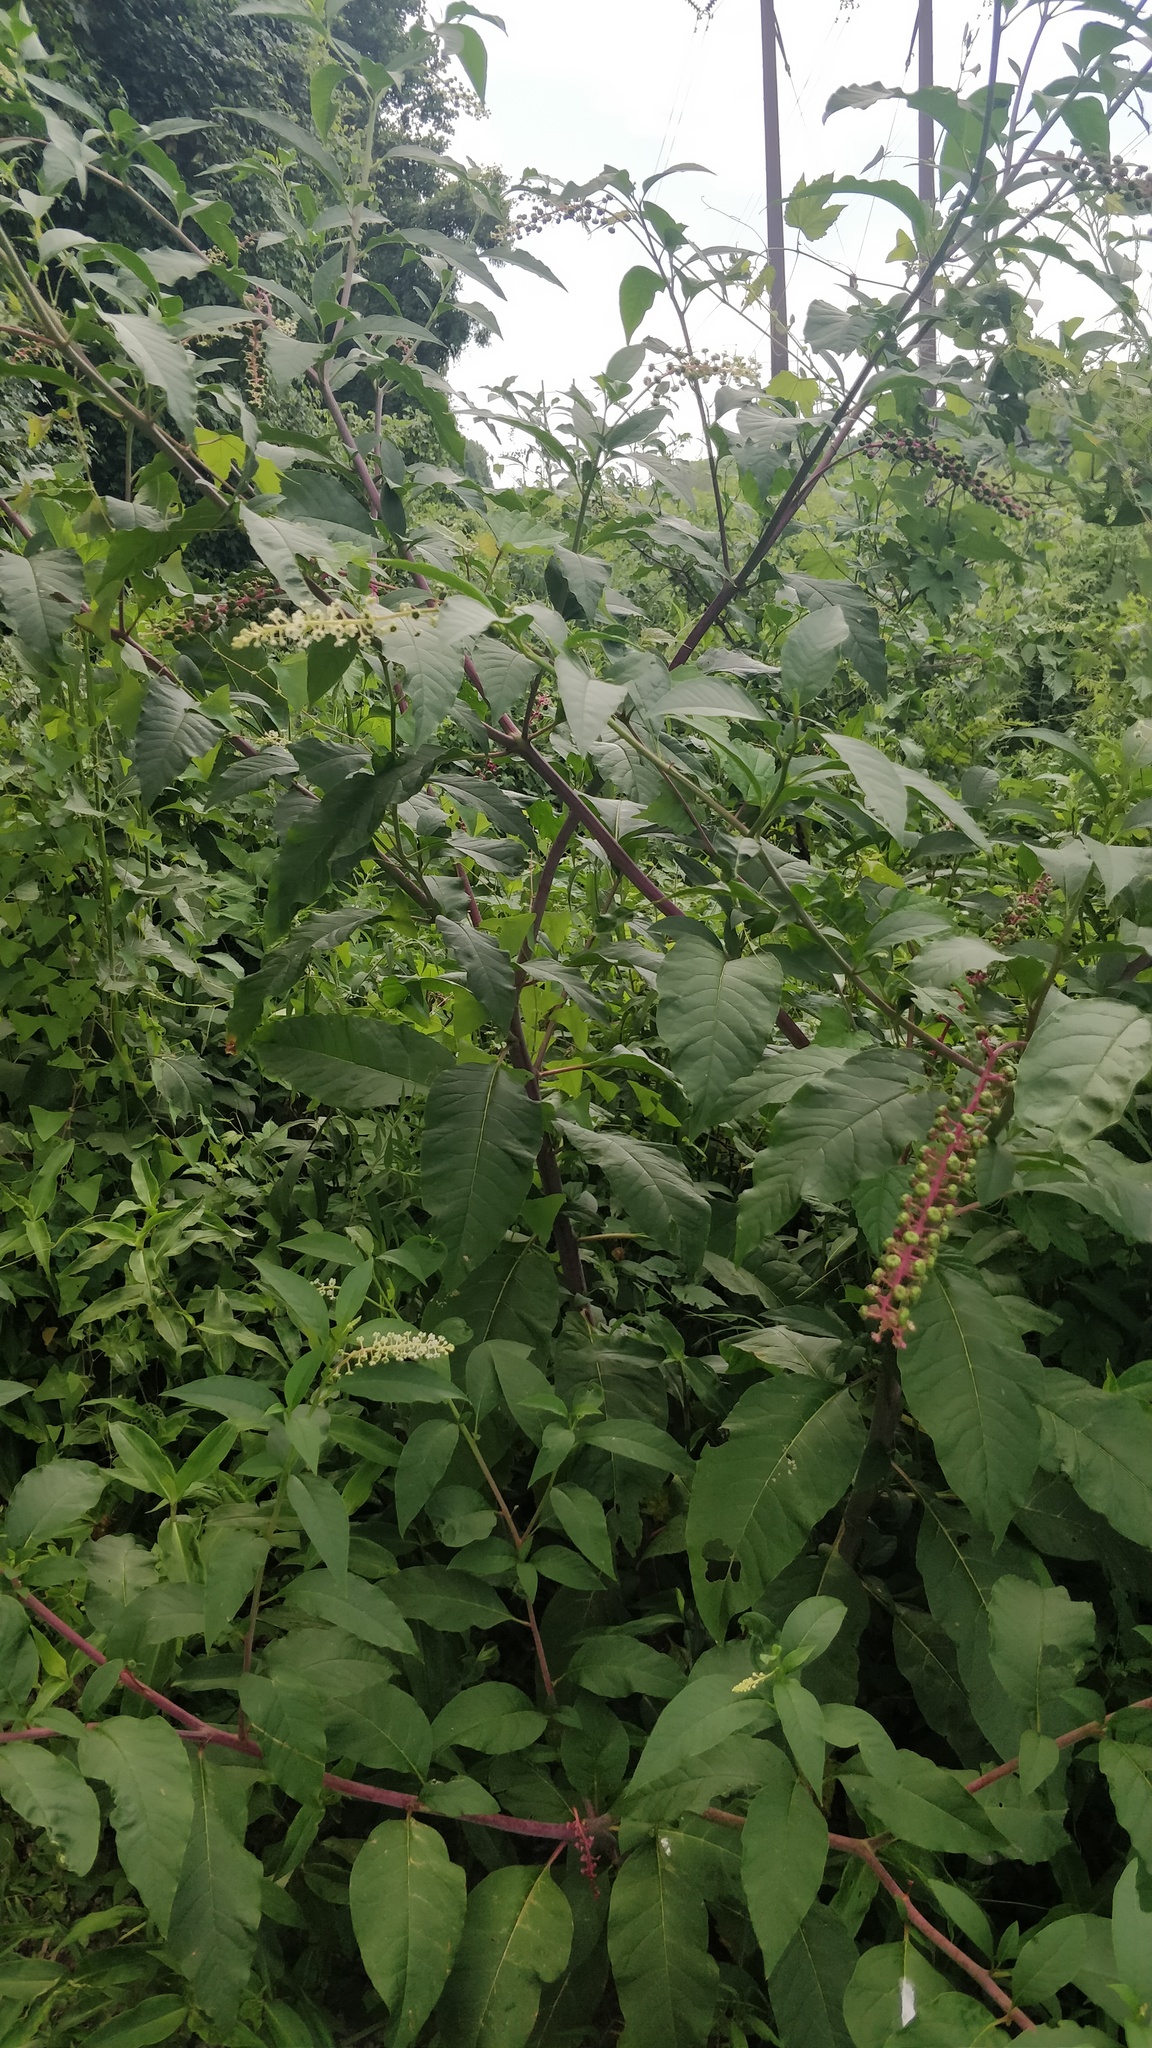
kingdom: Plantae
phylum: Tracheophyta
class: Magnoliopsida
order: Caryophyllales
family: Phytolaccaceae
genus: Phytolacca
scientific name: Phytolacca americana
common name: American pokeweed
